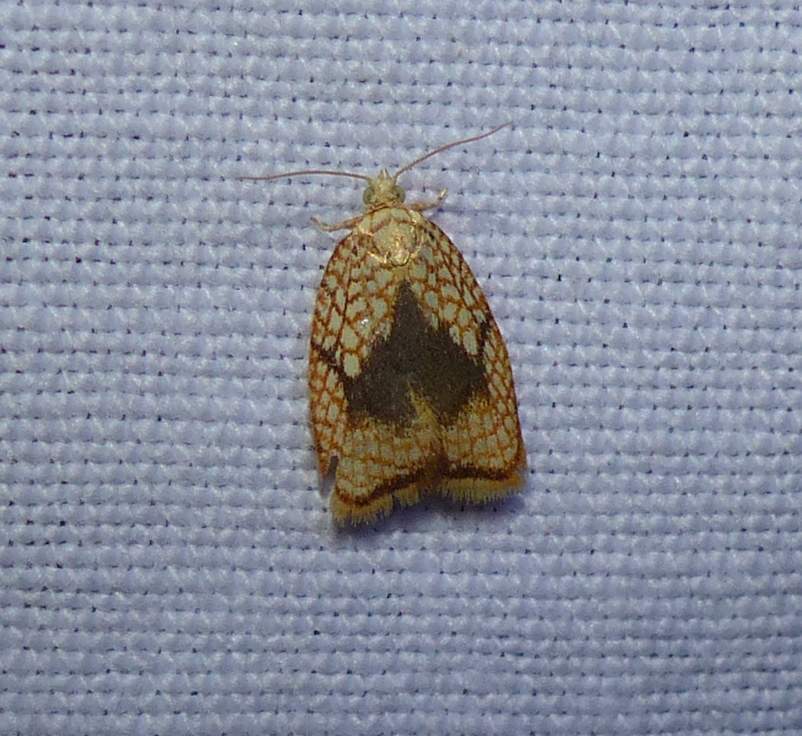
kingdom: Animalia
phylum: Arthropoda
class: Insecta
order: Lepidoptera
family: Tortricidae
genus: Acleris
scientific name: Acleris forsskaleana
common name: Maple button
